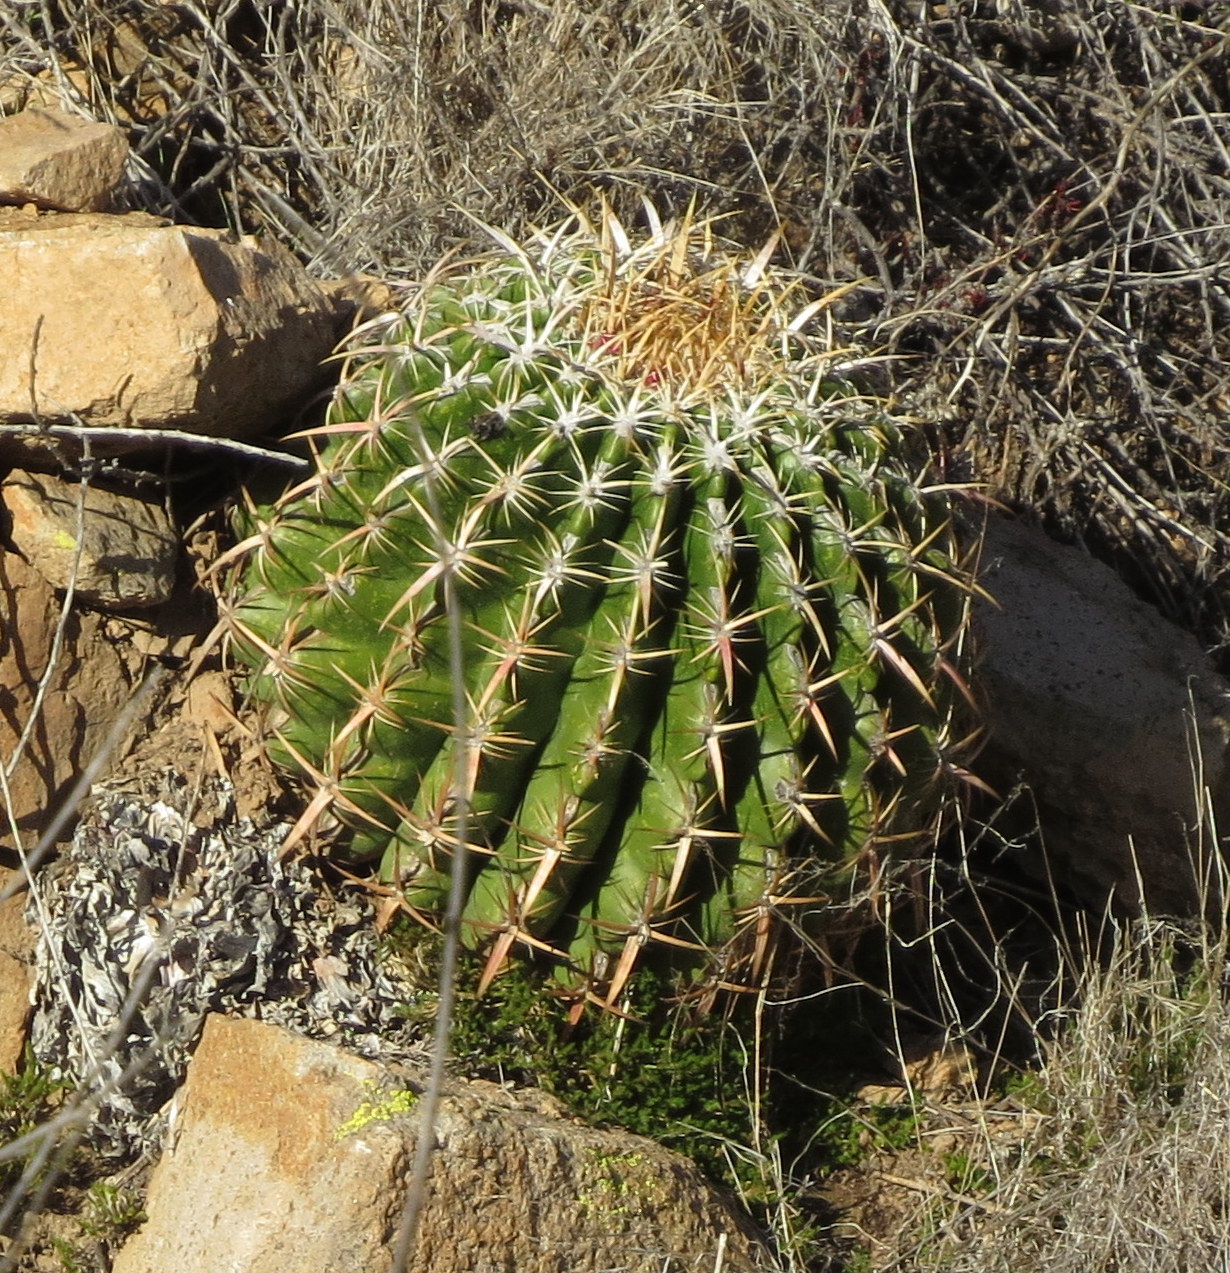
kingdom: Plantae
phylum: Tracheophyta
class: Magnoliopsida
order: Caryophyllales
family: Cactaceae
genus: Ferocactus
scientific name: Ferocactus viridescens
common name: San diego barrel cactus
